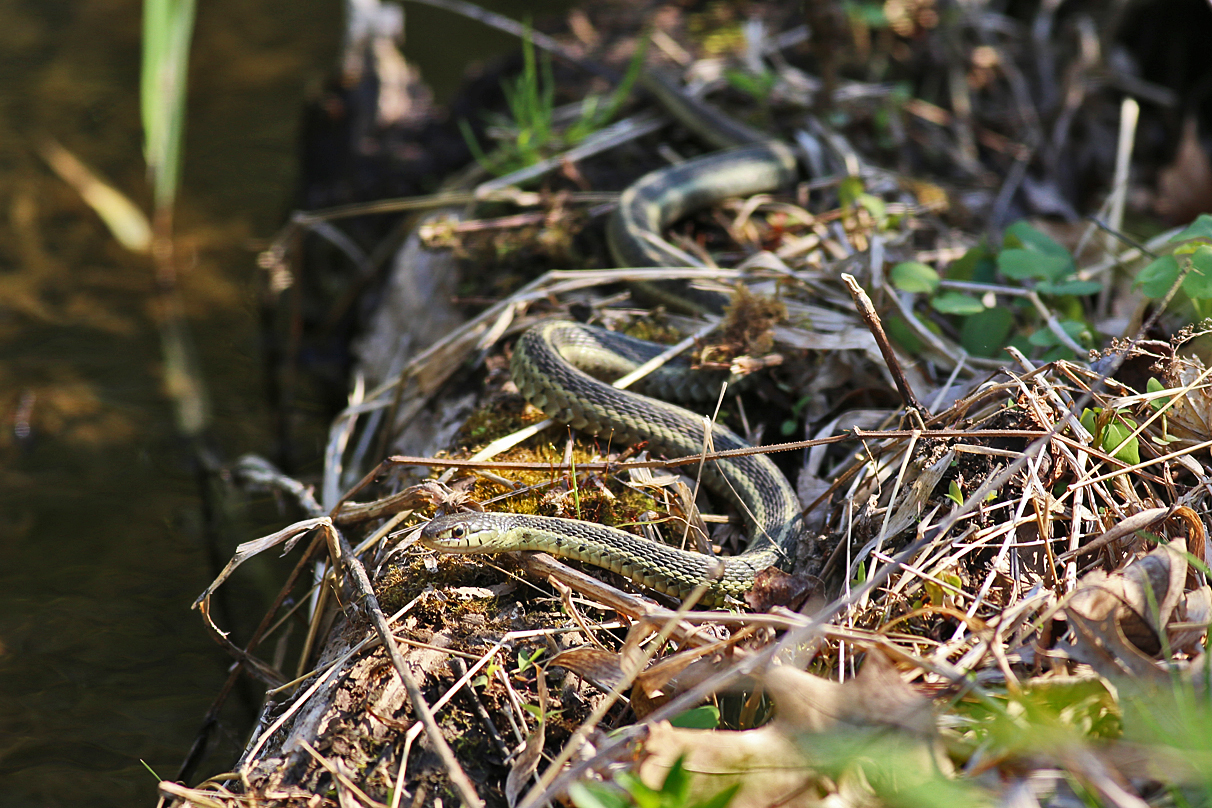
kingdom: Animalia
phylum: Chordata
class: Squamata
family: Colubridae
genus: Thamnophis
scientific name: Thamnophis sirtalis
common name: Common garter snake
